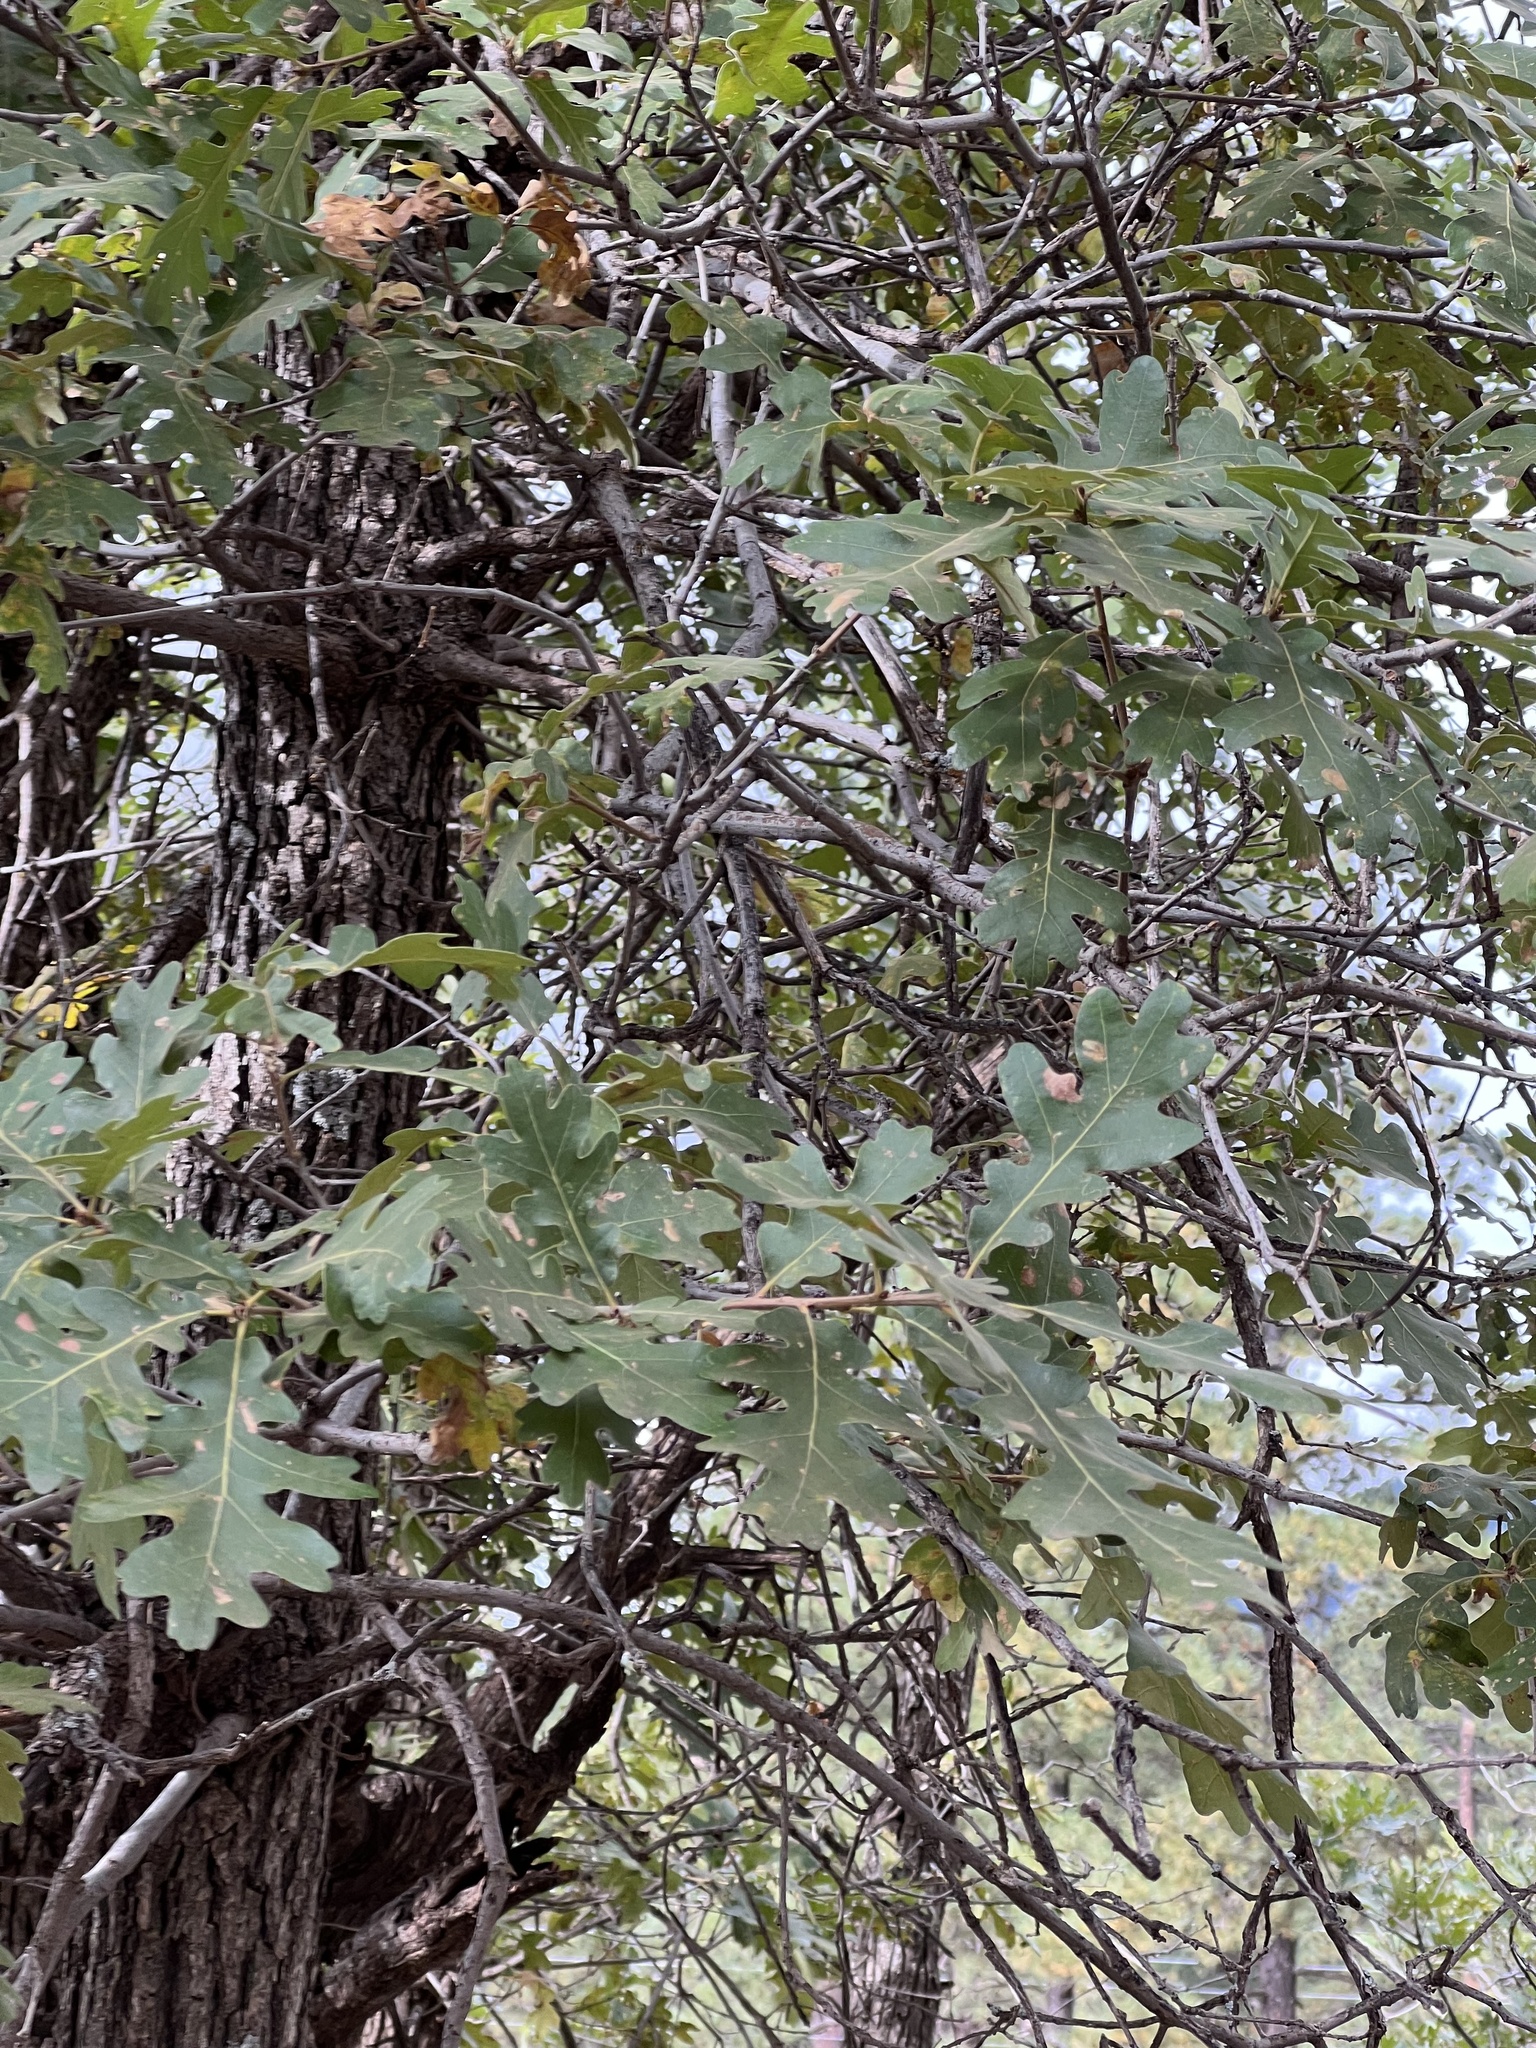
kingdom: Plantae
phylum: Tracheophyta
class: Magnoliopsida
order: Fagales
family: Fagaceae
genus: Quercus
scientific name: Quercus gambelii
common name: Gambel oak
